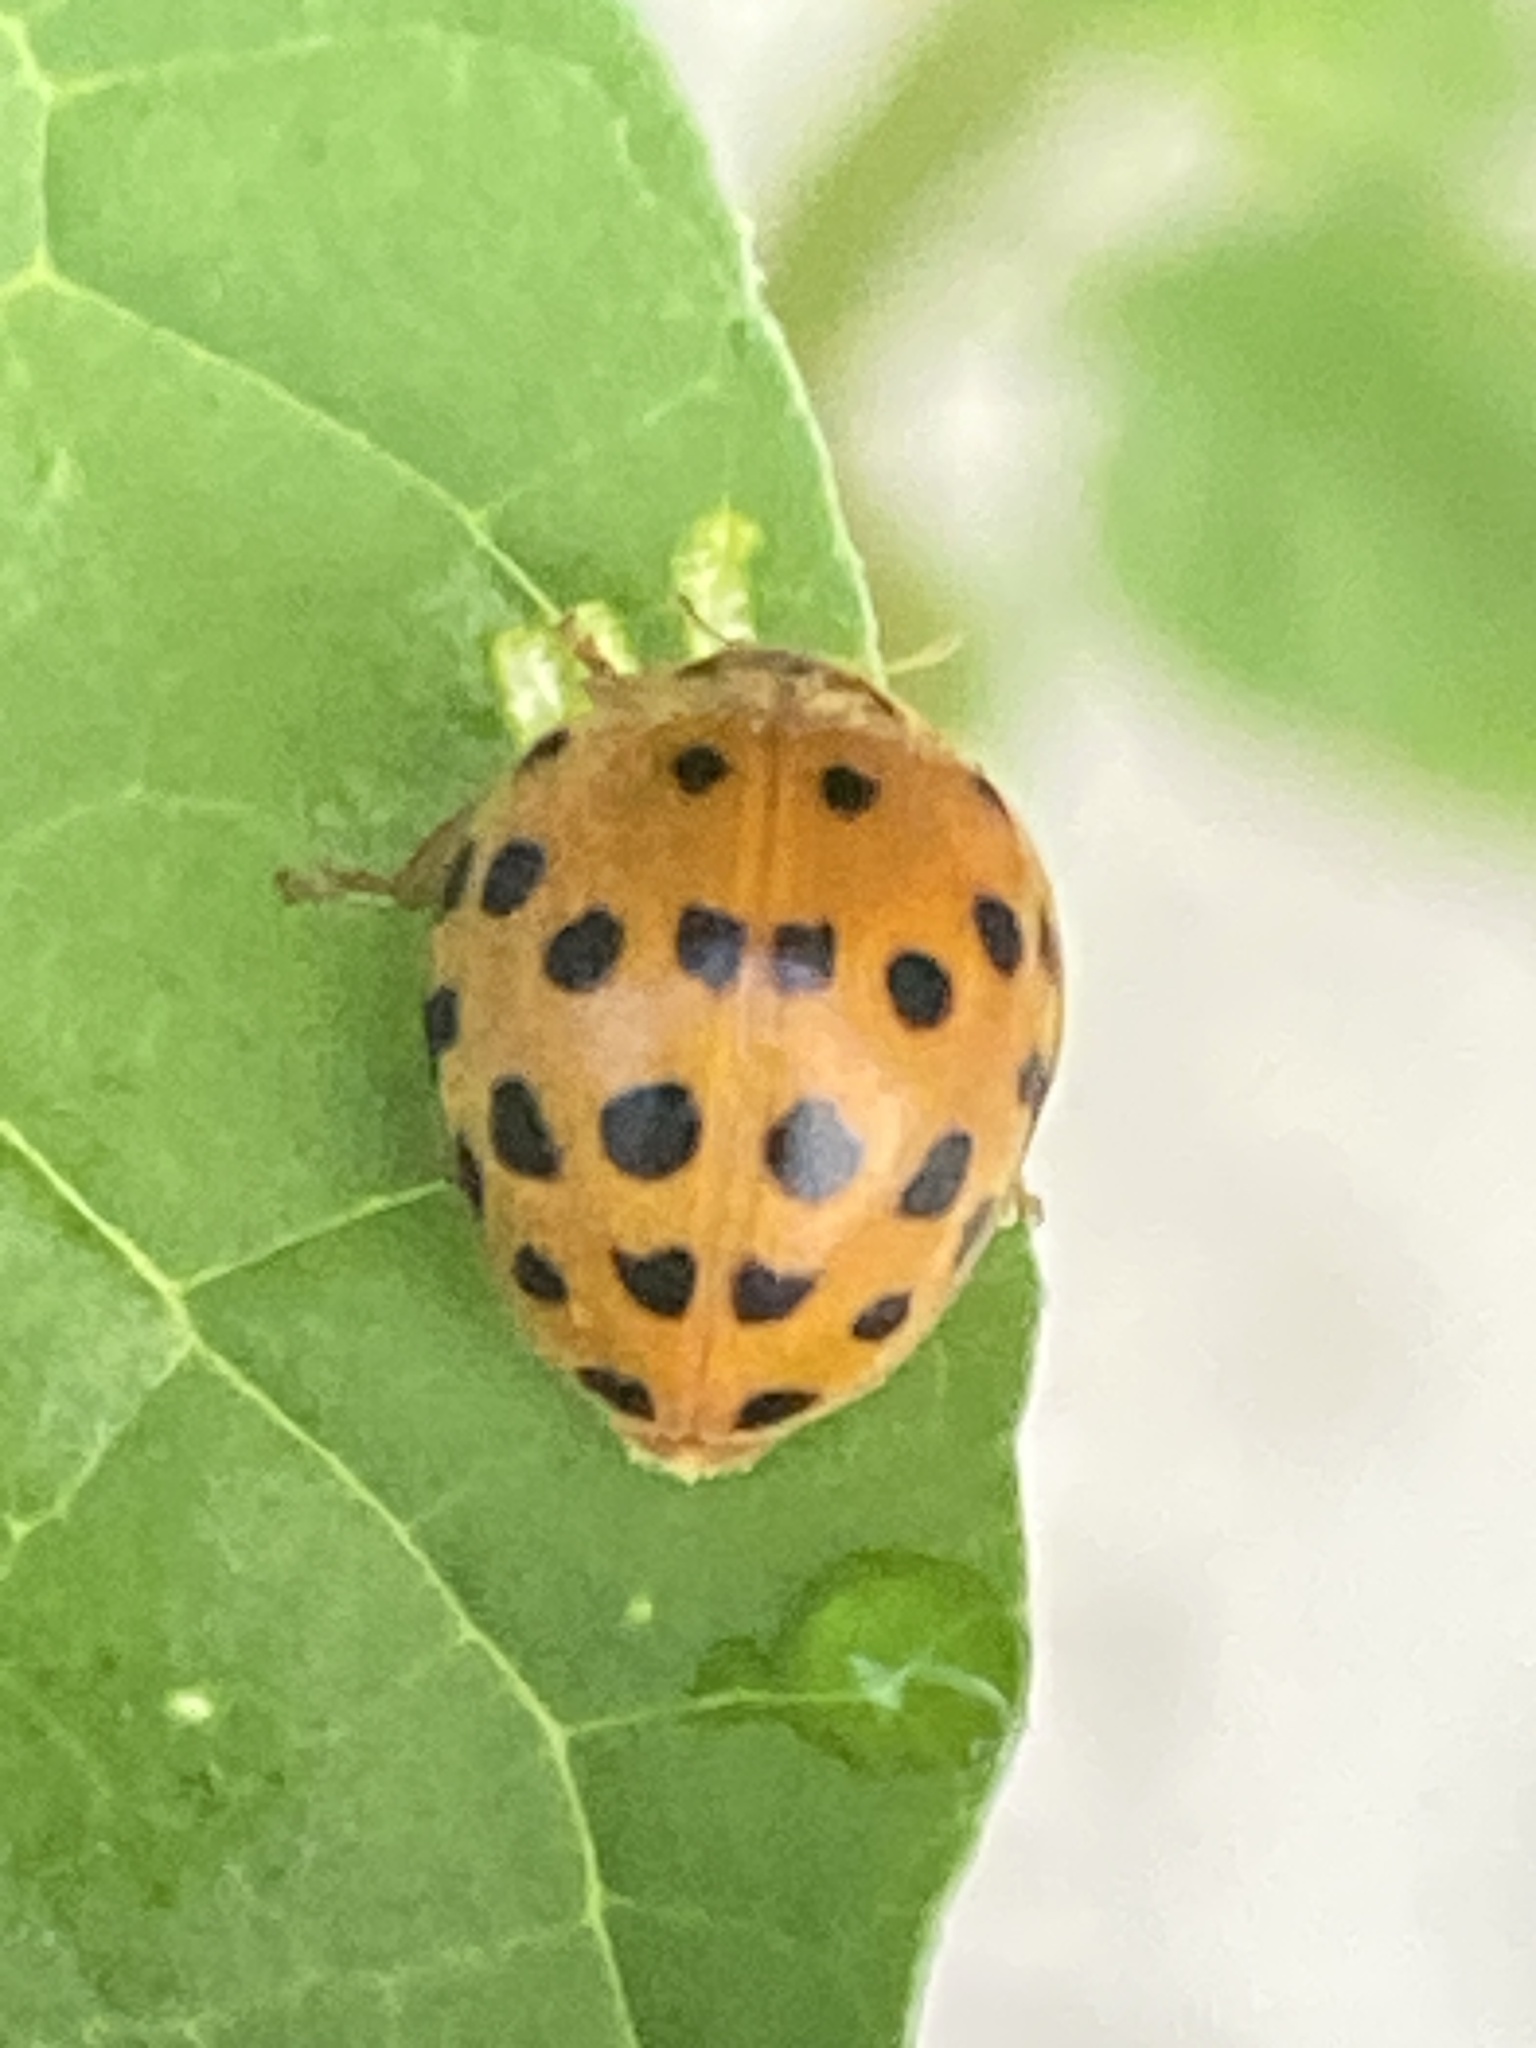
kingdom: Animalia
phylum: Arthropoda
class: Insecta
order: Coleoptera
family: Coccinellidae
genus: Henosepilachna
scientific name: Henosepilachna vigintioctopunctata
